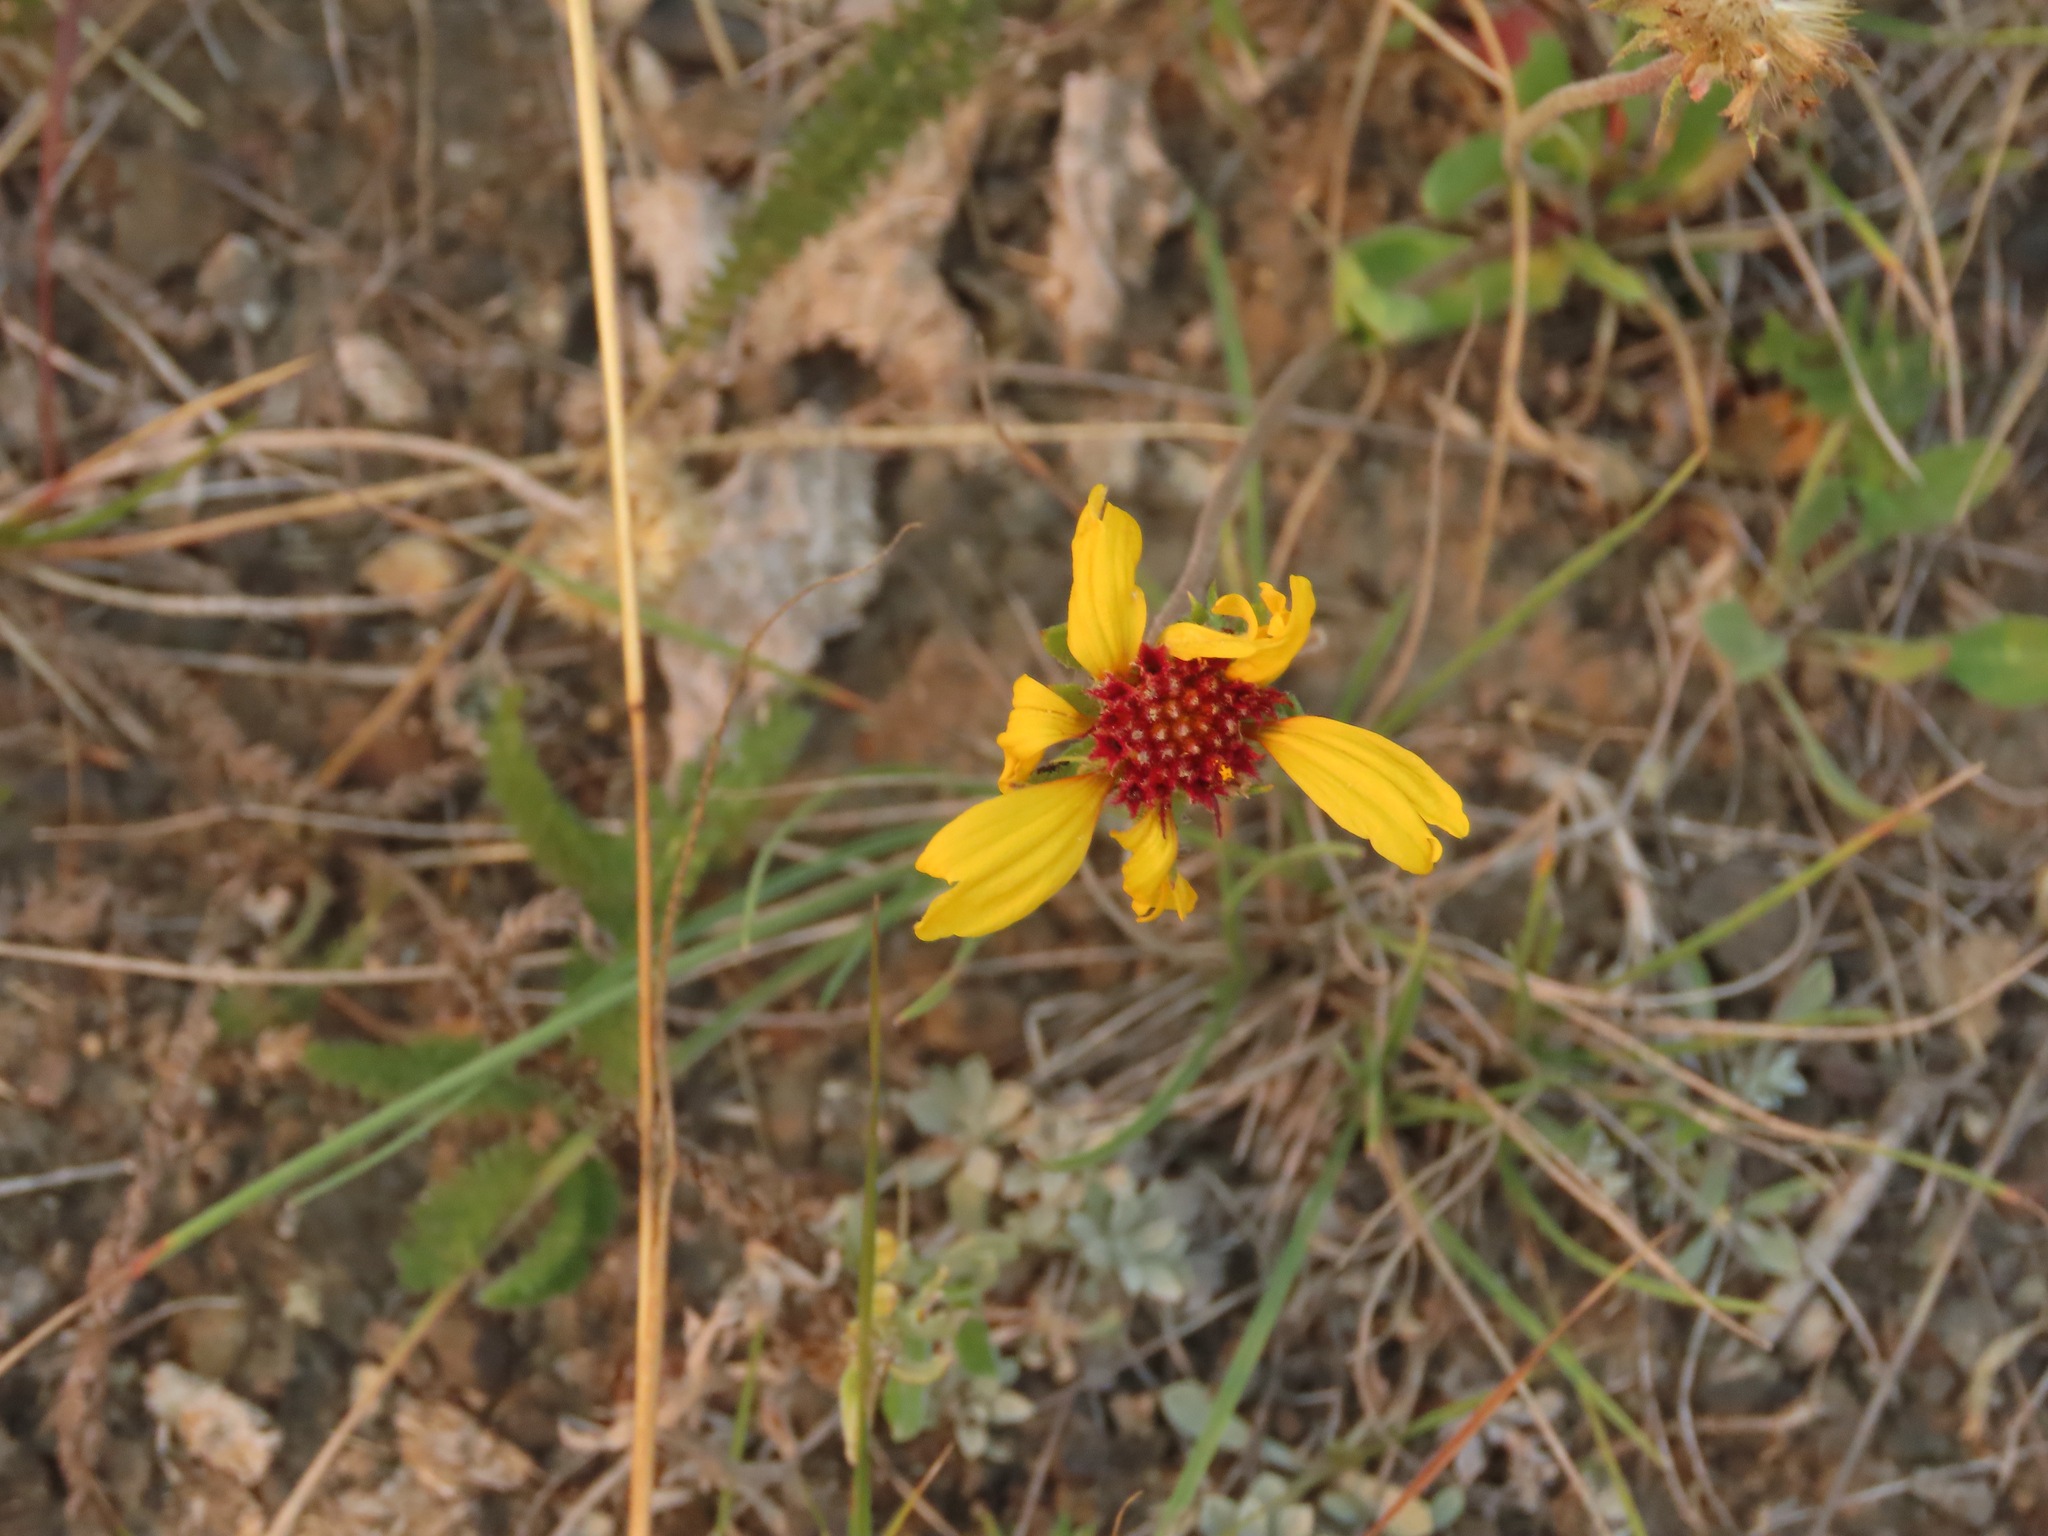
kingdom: Plantae
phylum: Tracheophyta
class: Magnoliopsida
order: Asterales
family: Asteraceae
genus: Gaillardia
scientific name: Gaillardia aristata
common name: Blanket-flower
